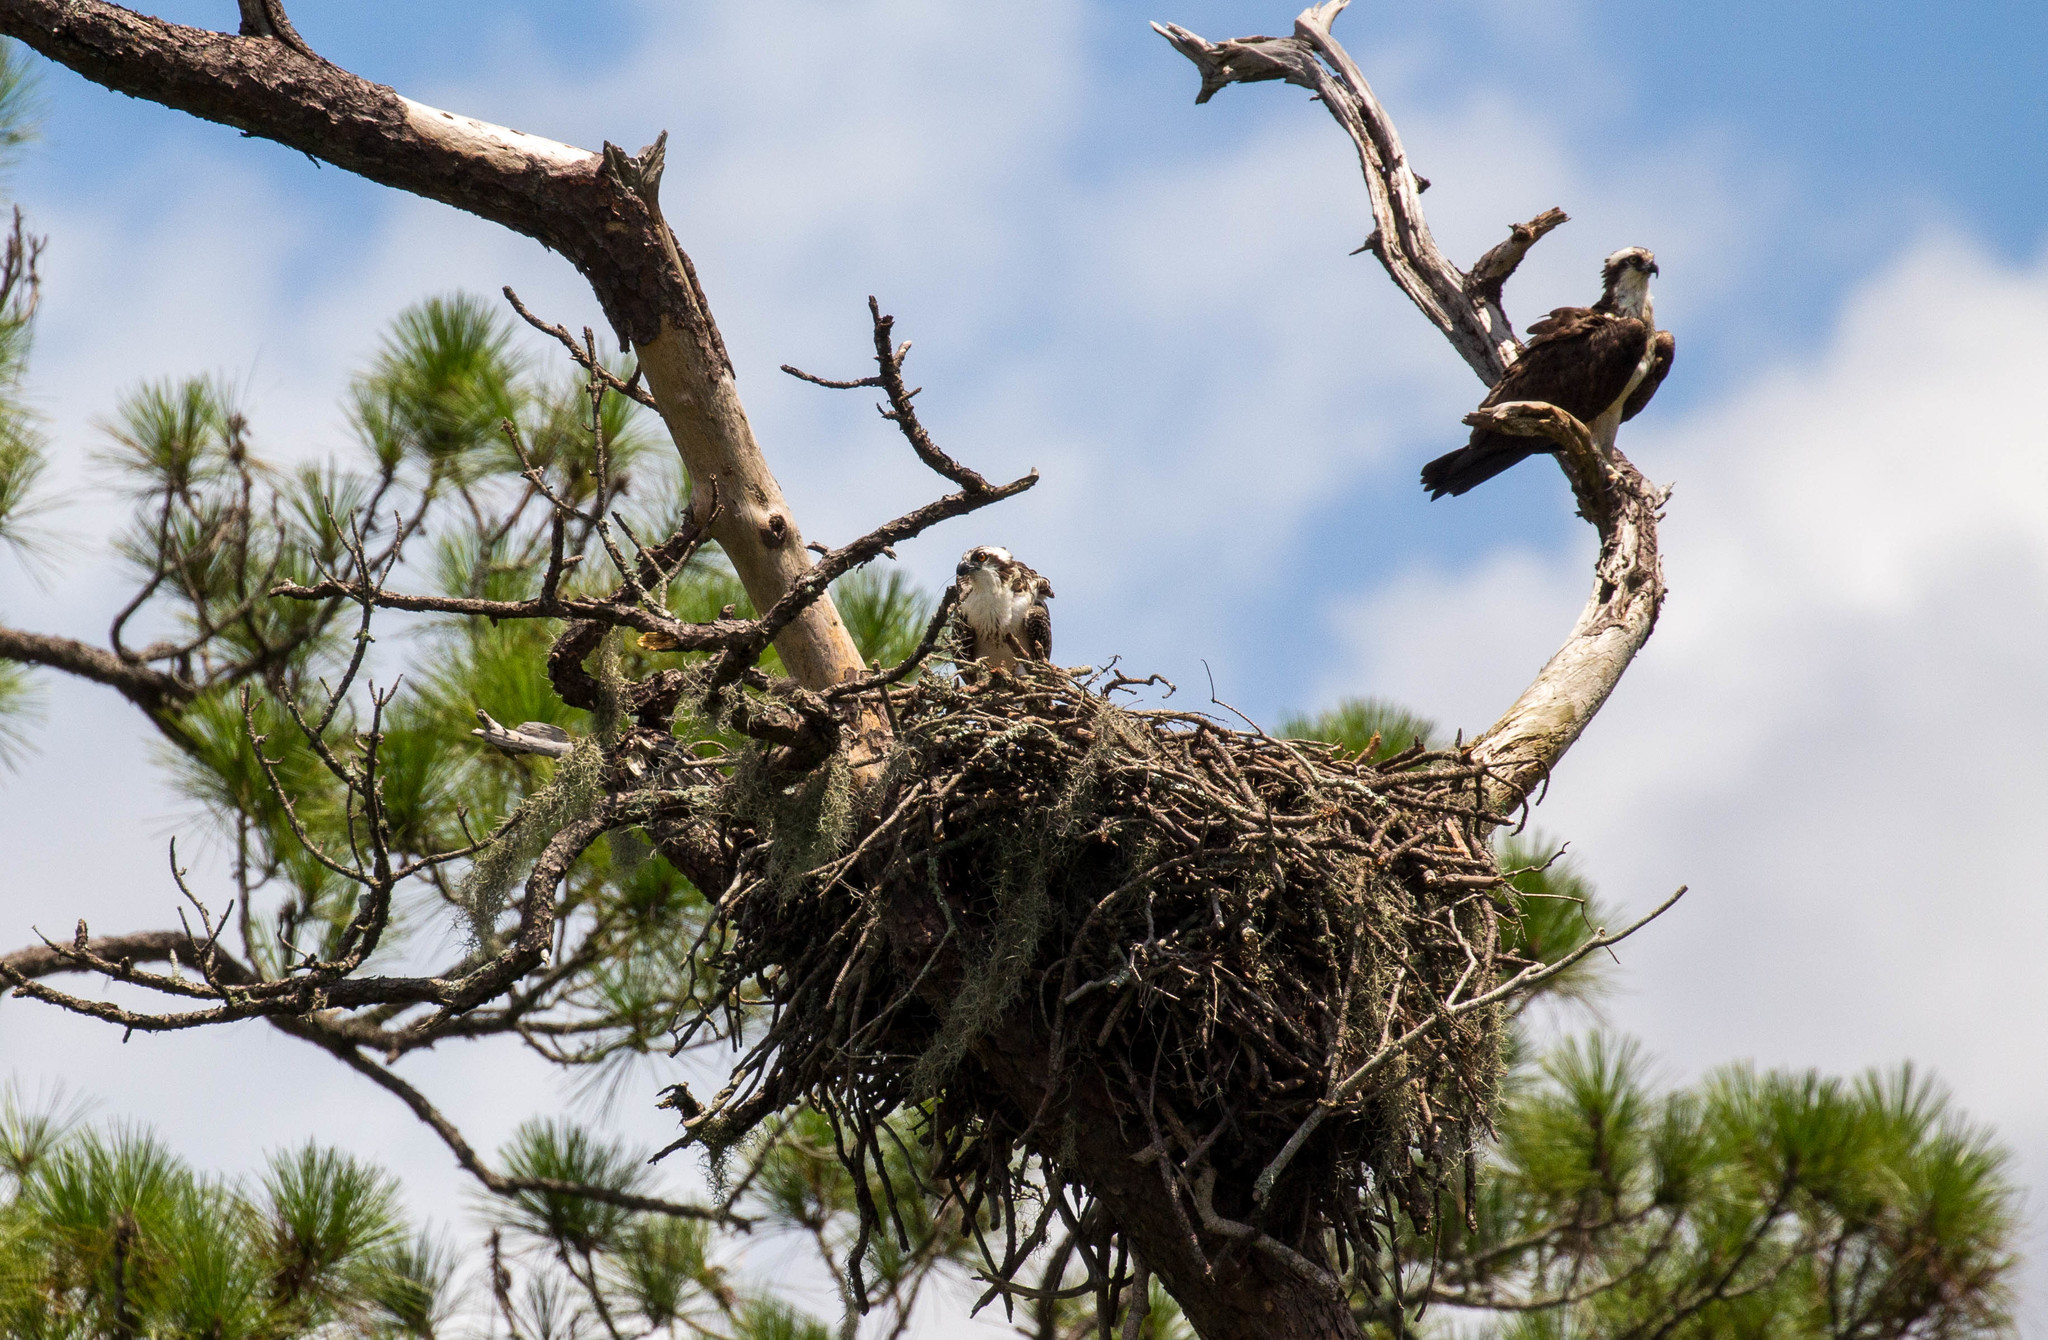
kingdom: Animalia
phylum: Chordata
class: Aves
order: Accipitriformes
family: Pandionidae
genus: Pandion
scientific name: Pandion haliaetus
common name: Osprey
